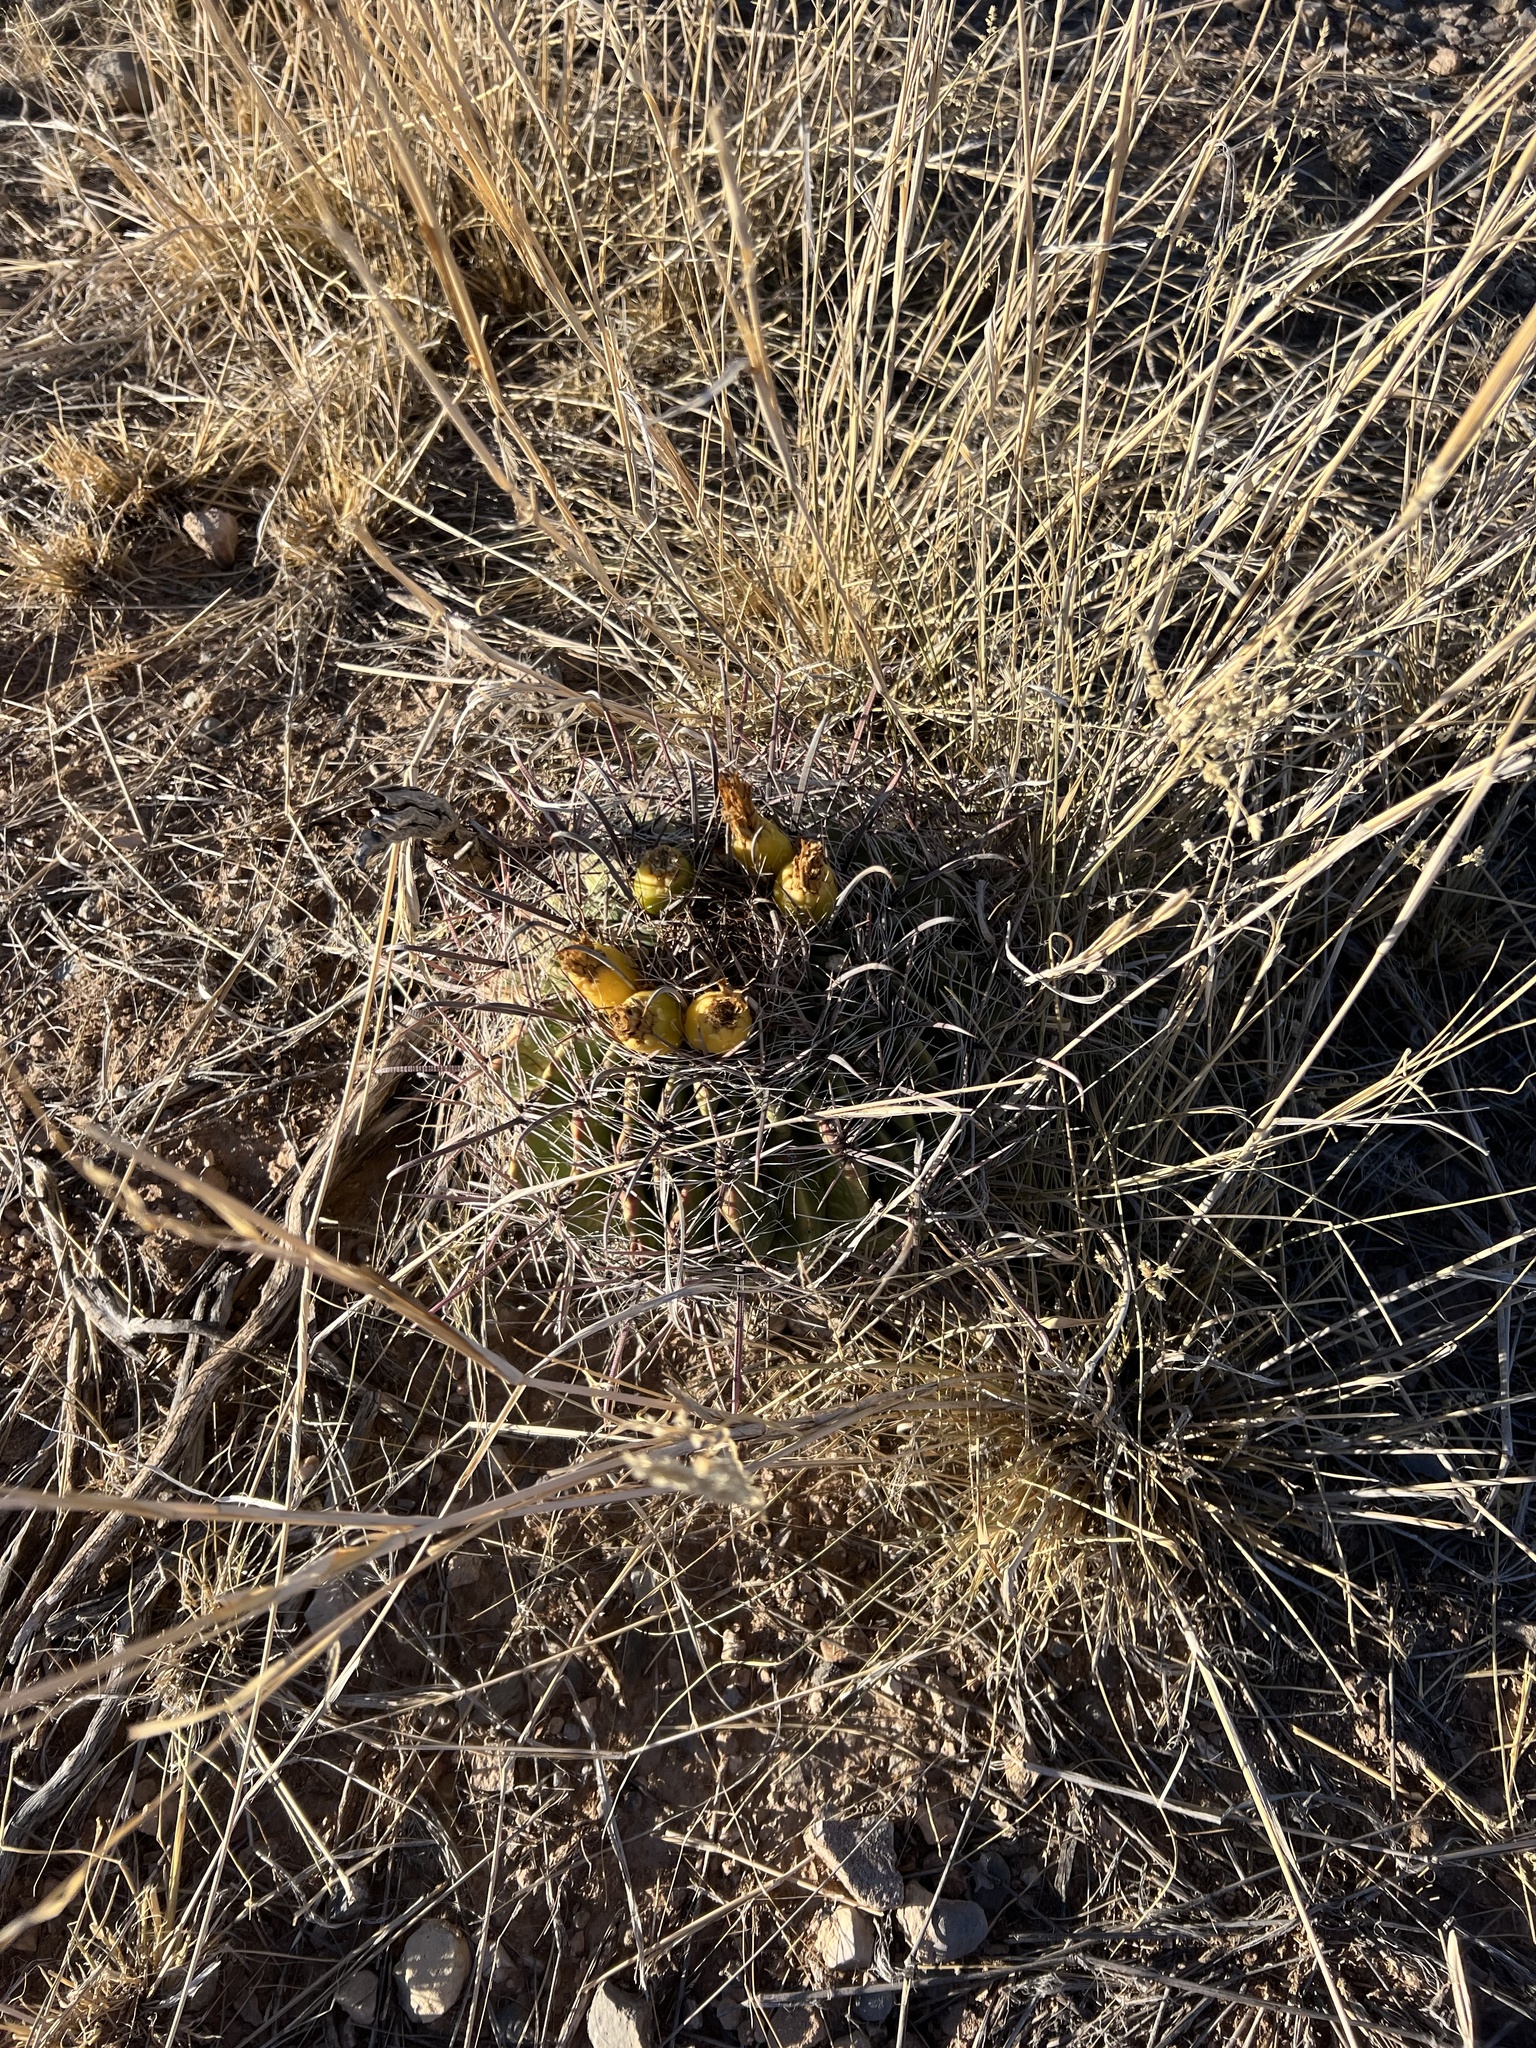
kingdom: Plantae
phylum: Tracheophyta
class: Magnoliopsida
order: Caryophyllales
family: Cactaceae
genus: Ferocactus
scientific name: Ferocactus wislizeni
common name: Candy barrel cactus
